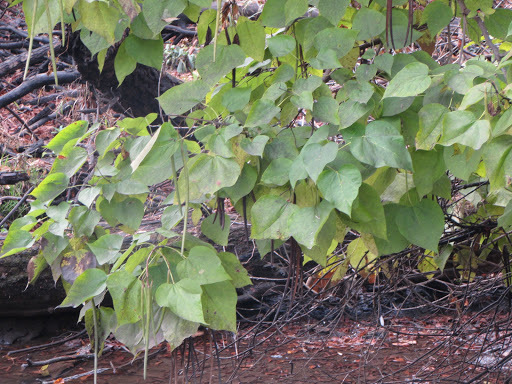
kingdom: Plantae
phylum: Tracheophyta
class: Magnoliopsida
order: Lamiales
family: Bignoniaceae
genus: Catalpa
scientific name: Catalpa speciosa
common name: Northern catalpa
